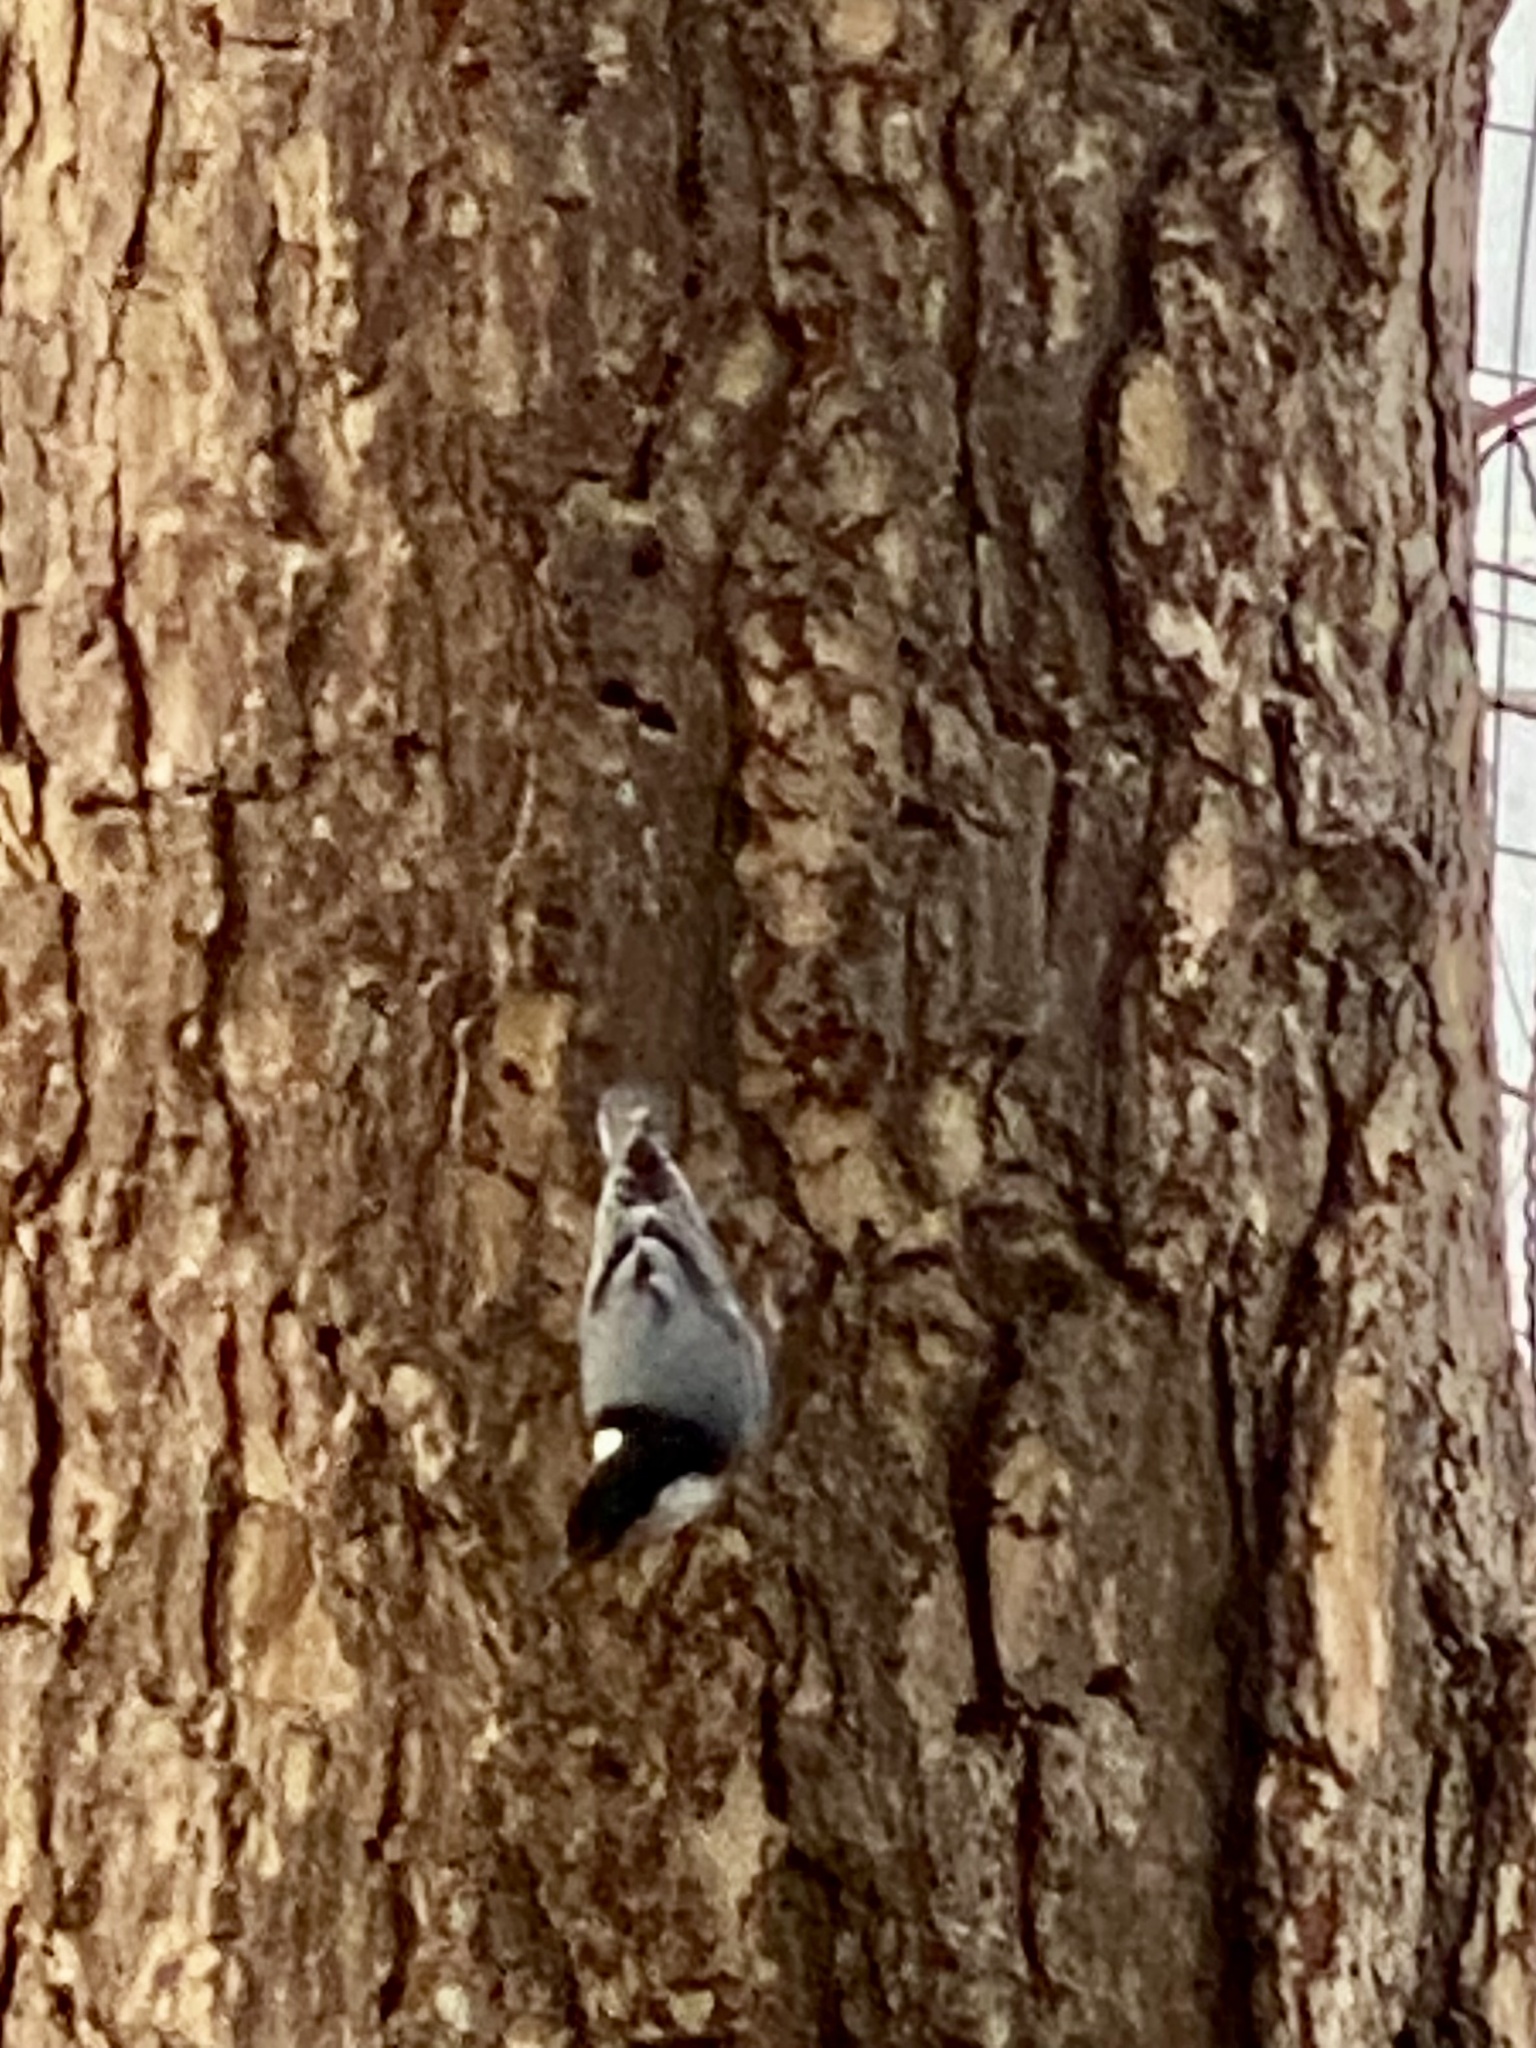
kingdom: Animalia
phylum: Chordata
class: Aves
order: Passeriformes
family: Sittidae
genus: Sitta
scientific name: Sitta carolinensis
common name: White-breasted nuthatch
